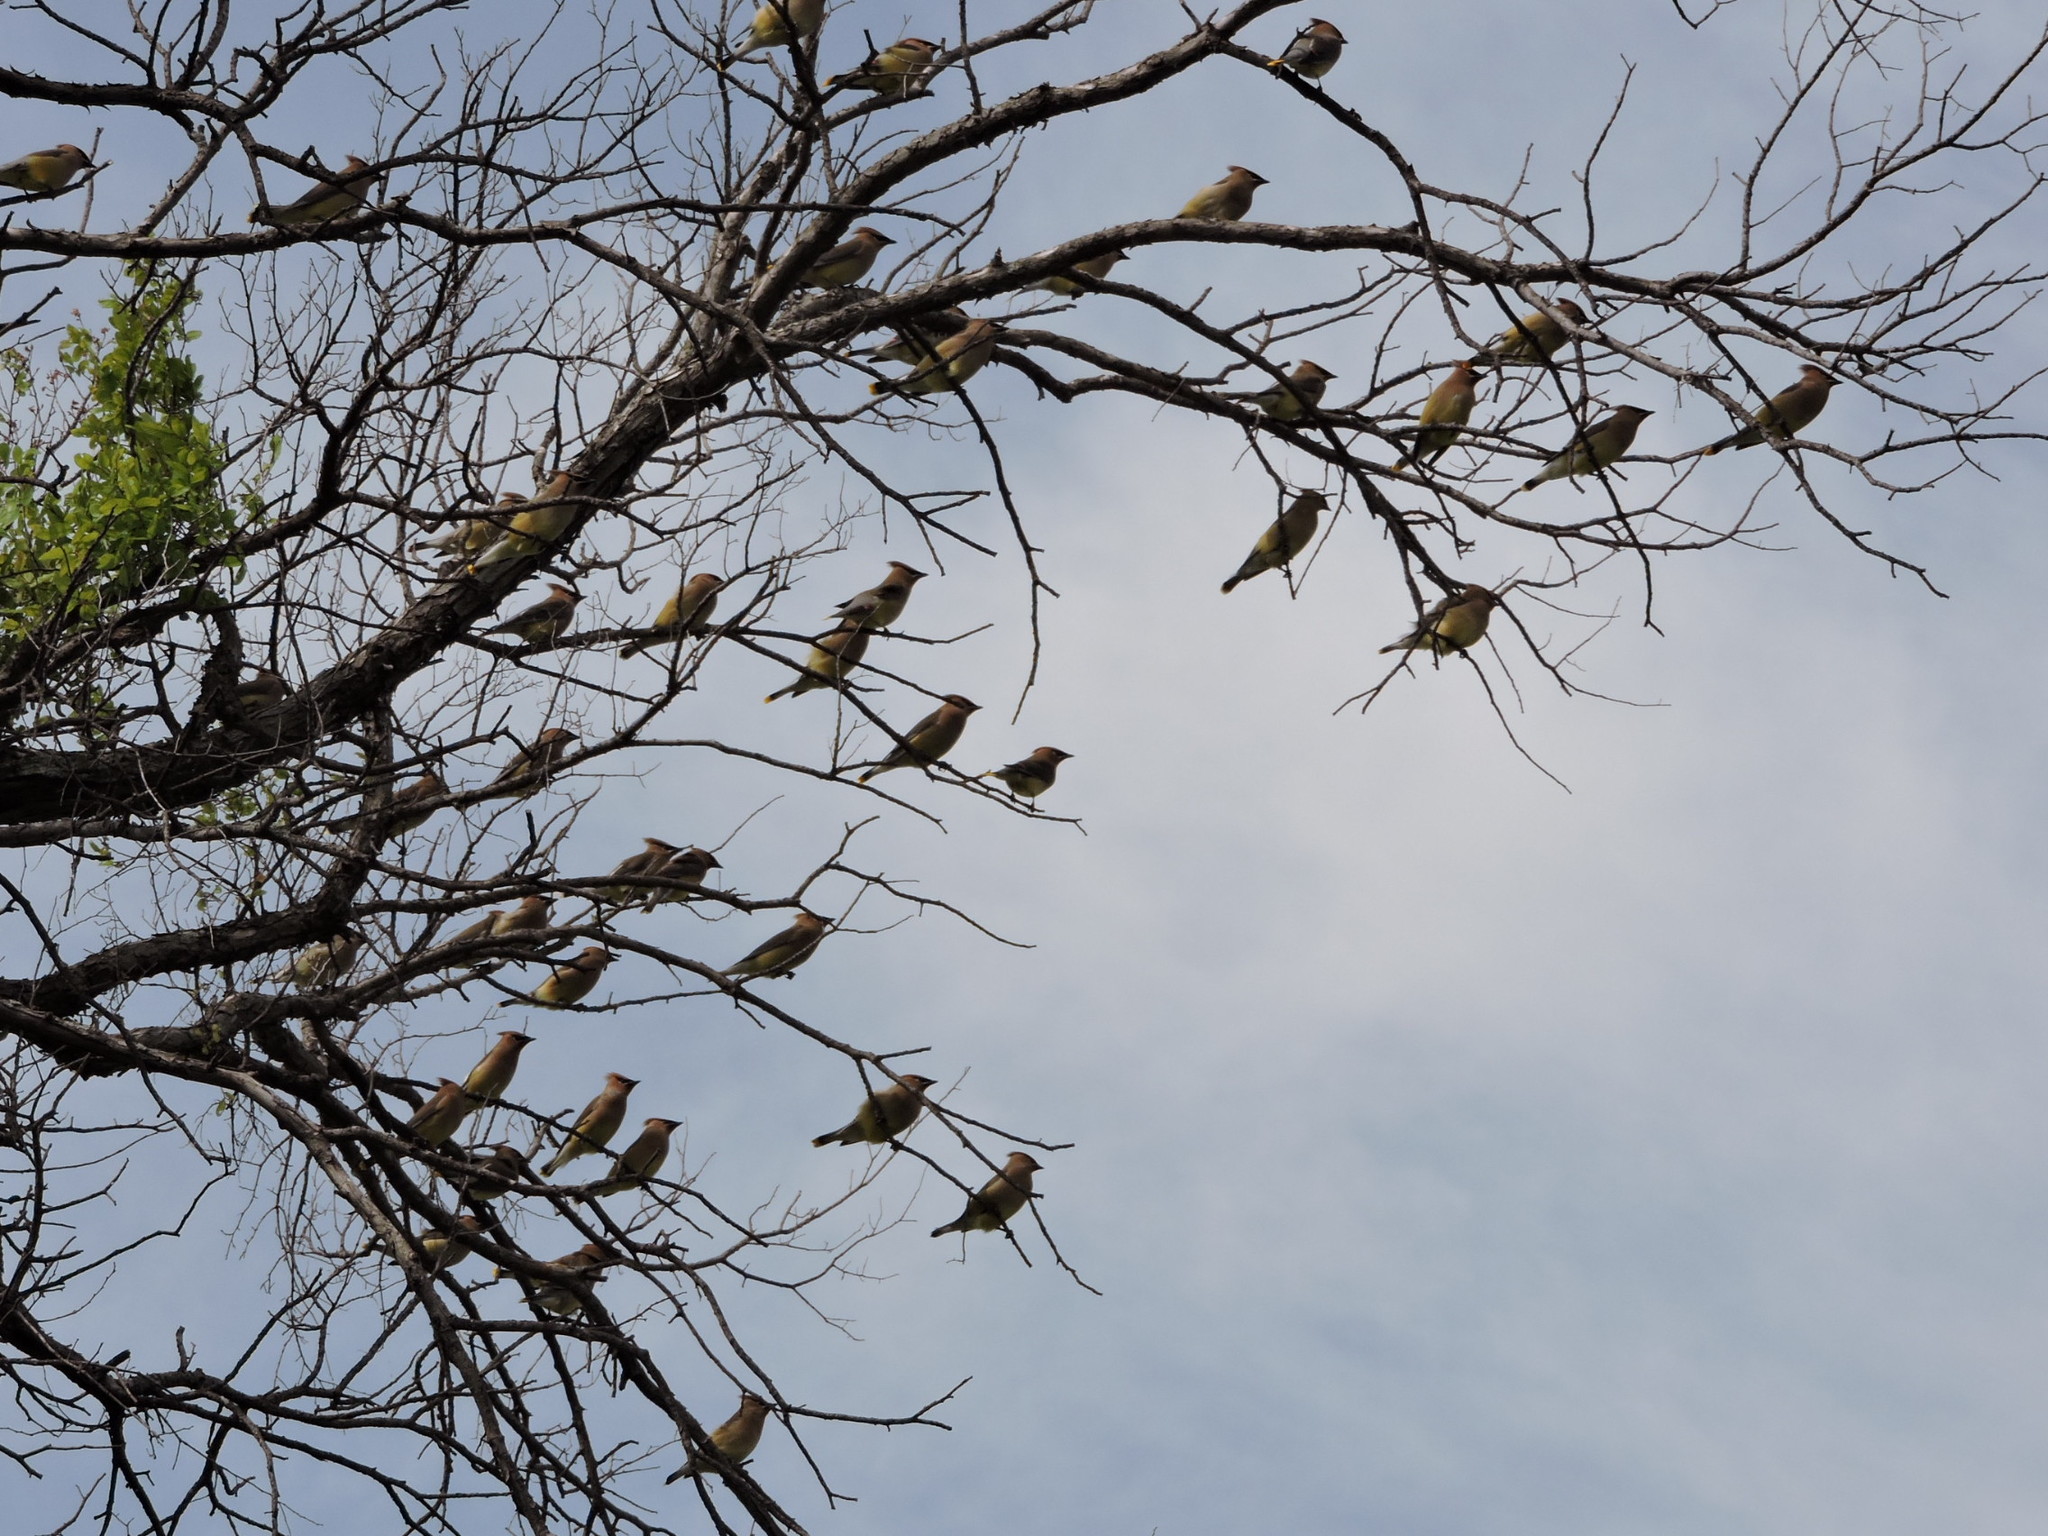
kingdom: Animalia
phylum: Chordata
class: Aves
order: Passeriformes
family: Bombycillidae
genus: Bombycilla
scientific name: Bombycilla cedrorum
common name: Cedar waxwing
